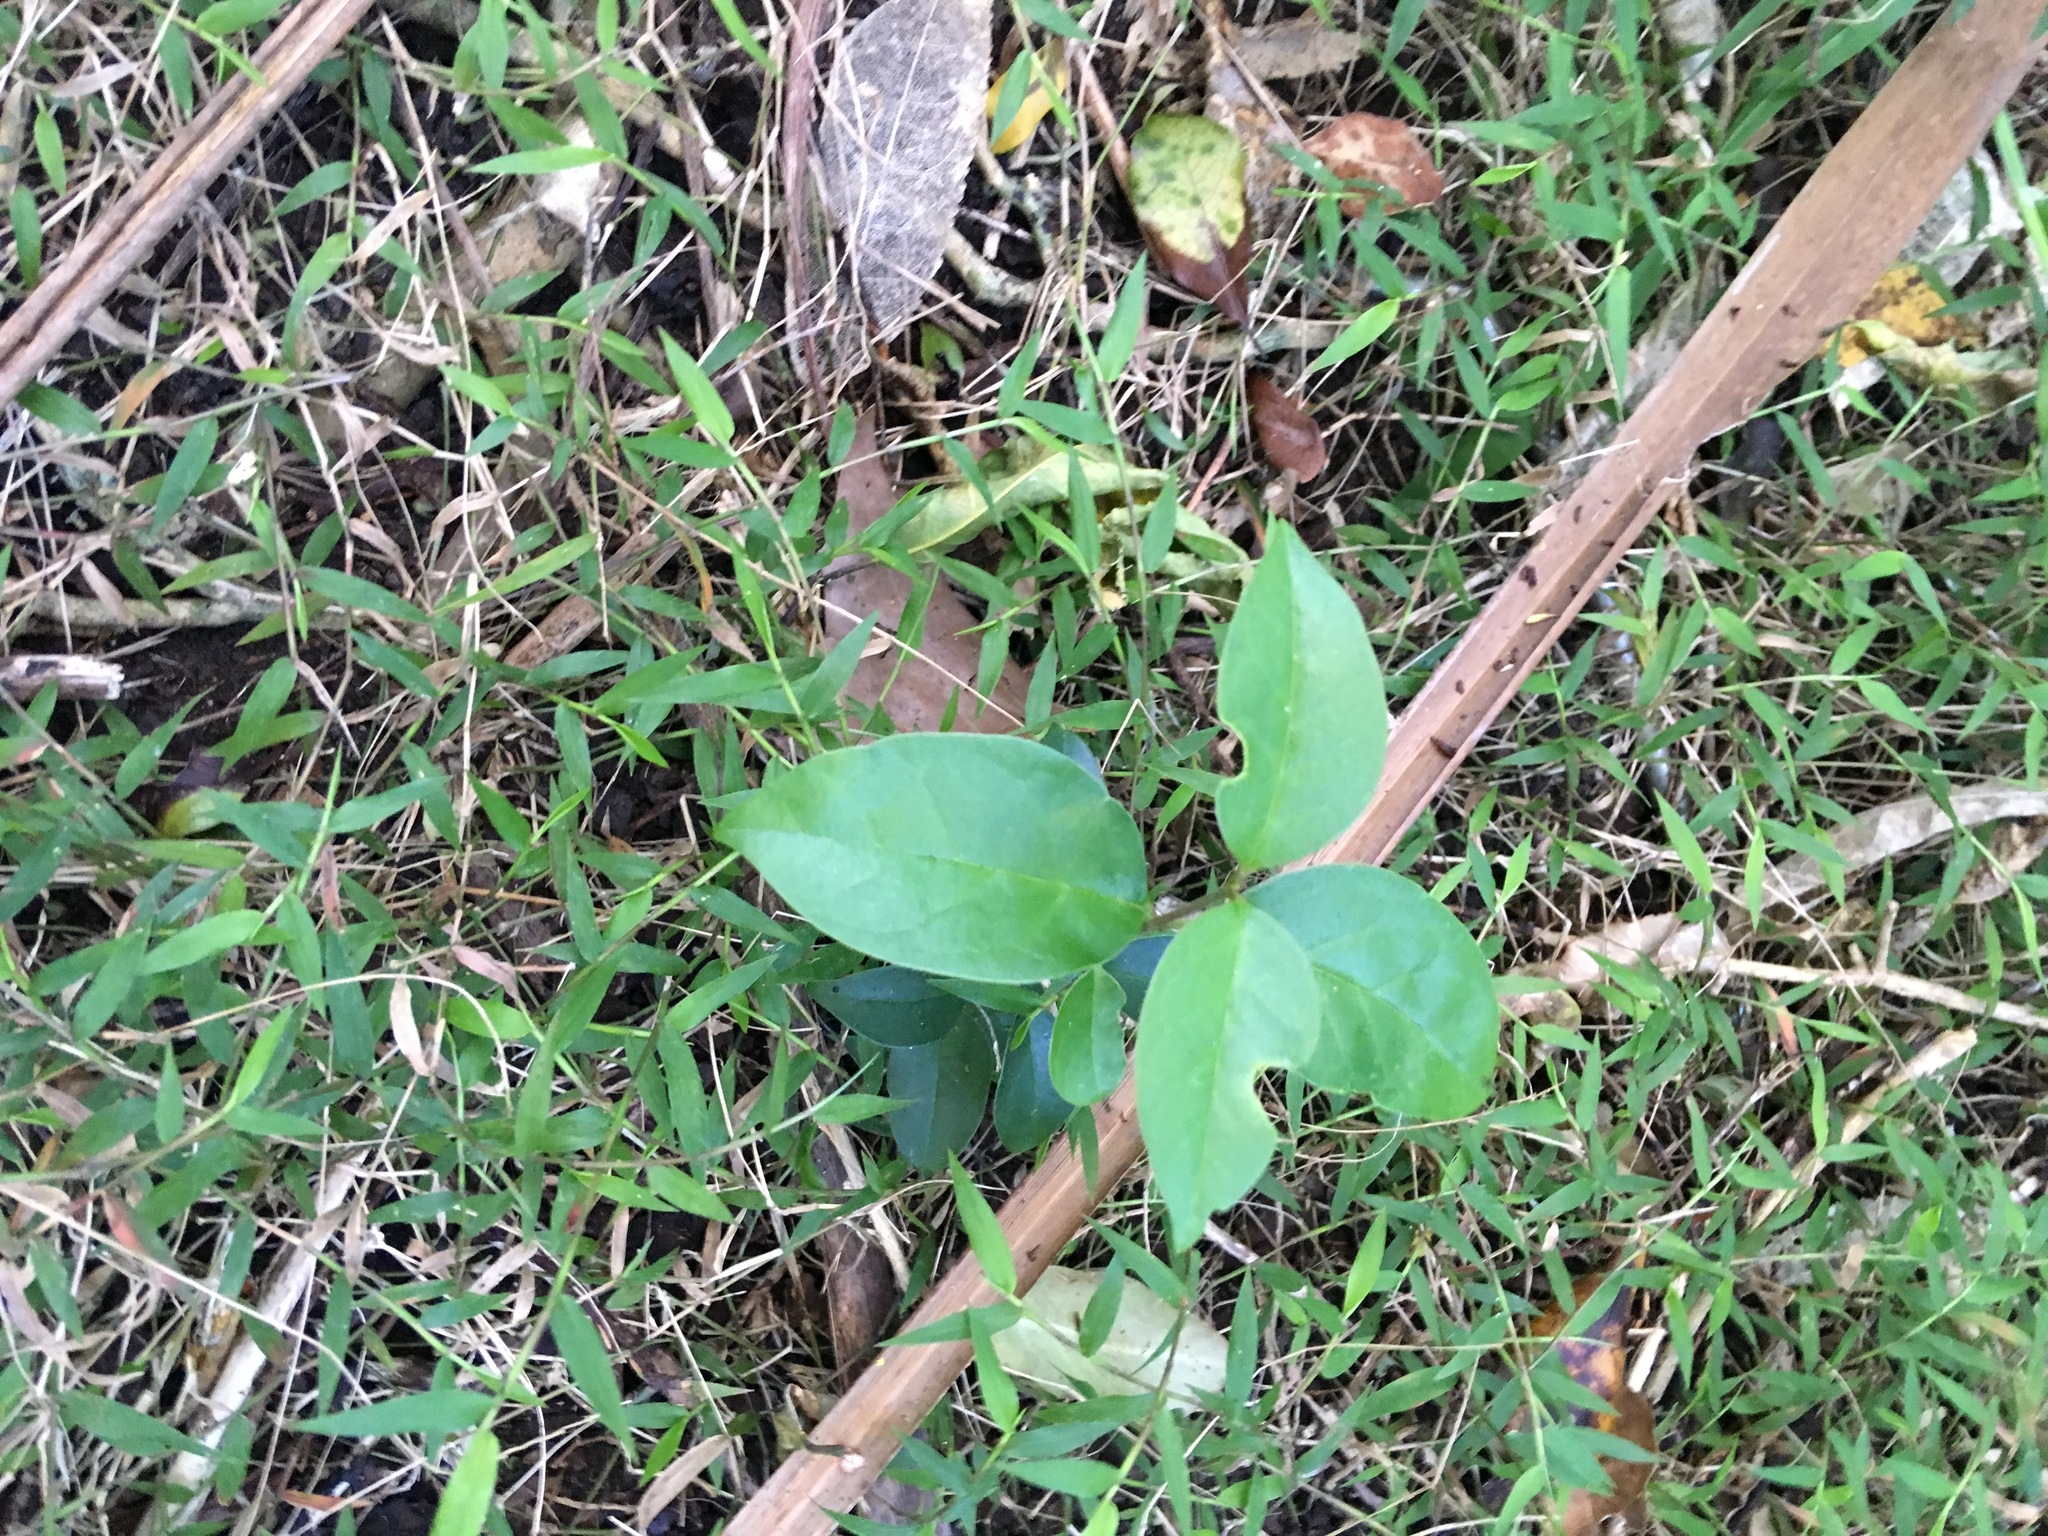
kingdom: Plantae
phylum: Tracheophyta
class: Magnoliopsida
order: Lamiales
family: Oleaceae
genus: Ligustrum
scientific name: Ligustrum lucidum
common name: Glossy privet
